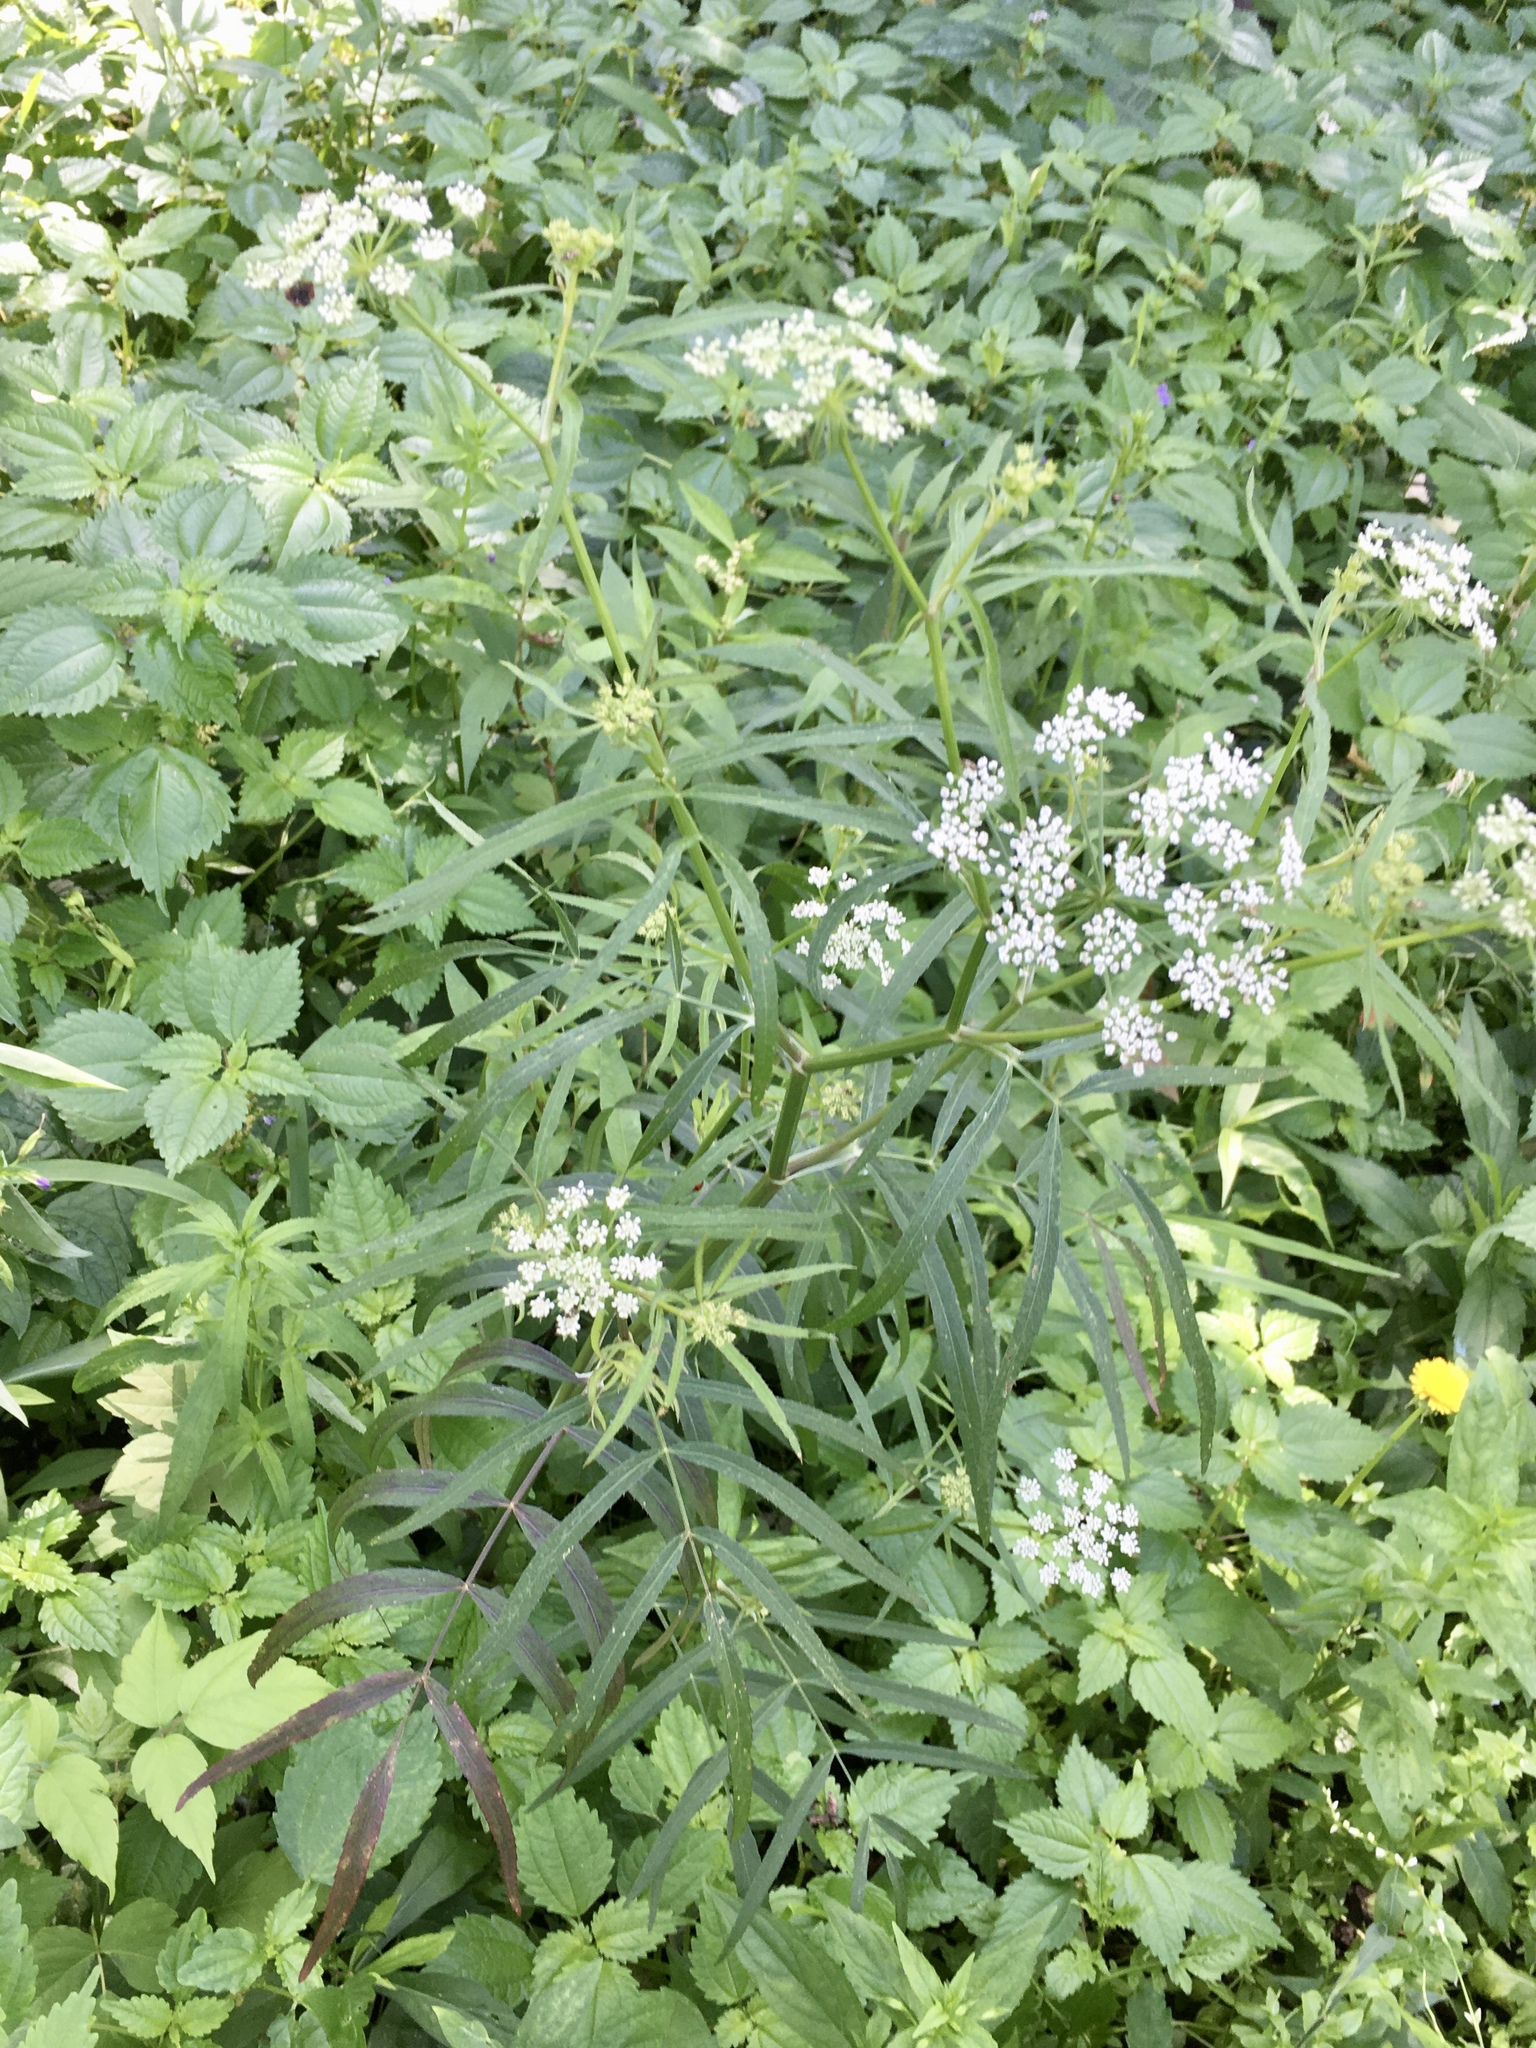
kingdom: Plantae
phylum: Tracheophyta
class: Magnoliopsida
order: Apiales
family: Apiaceae
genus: Sium
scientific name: Sium suave
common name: Hemlock water-parsnip
